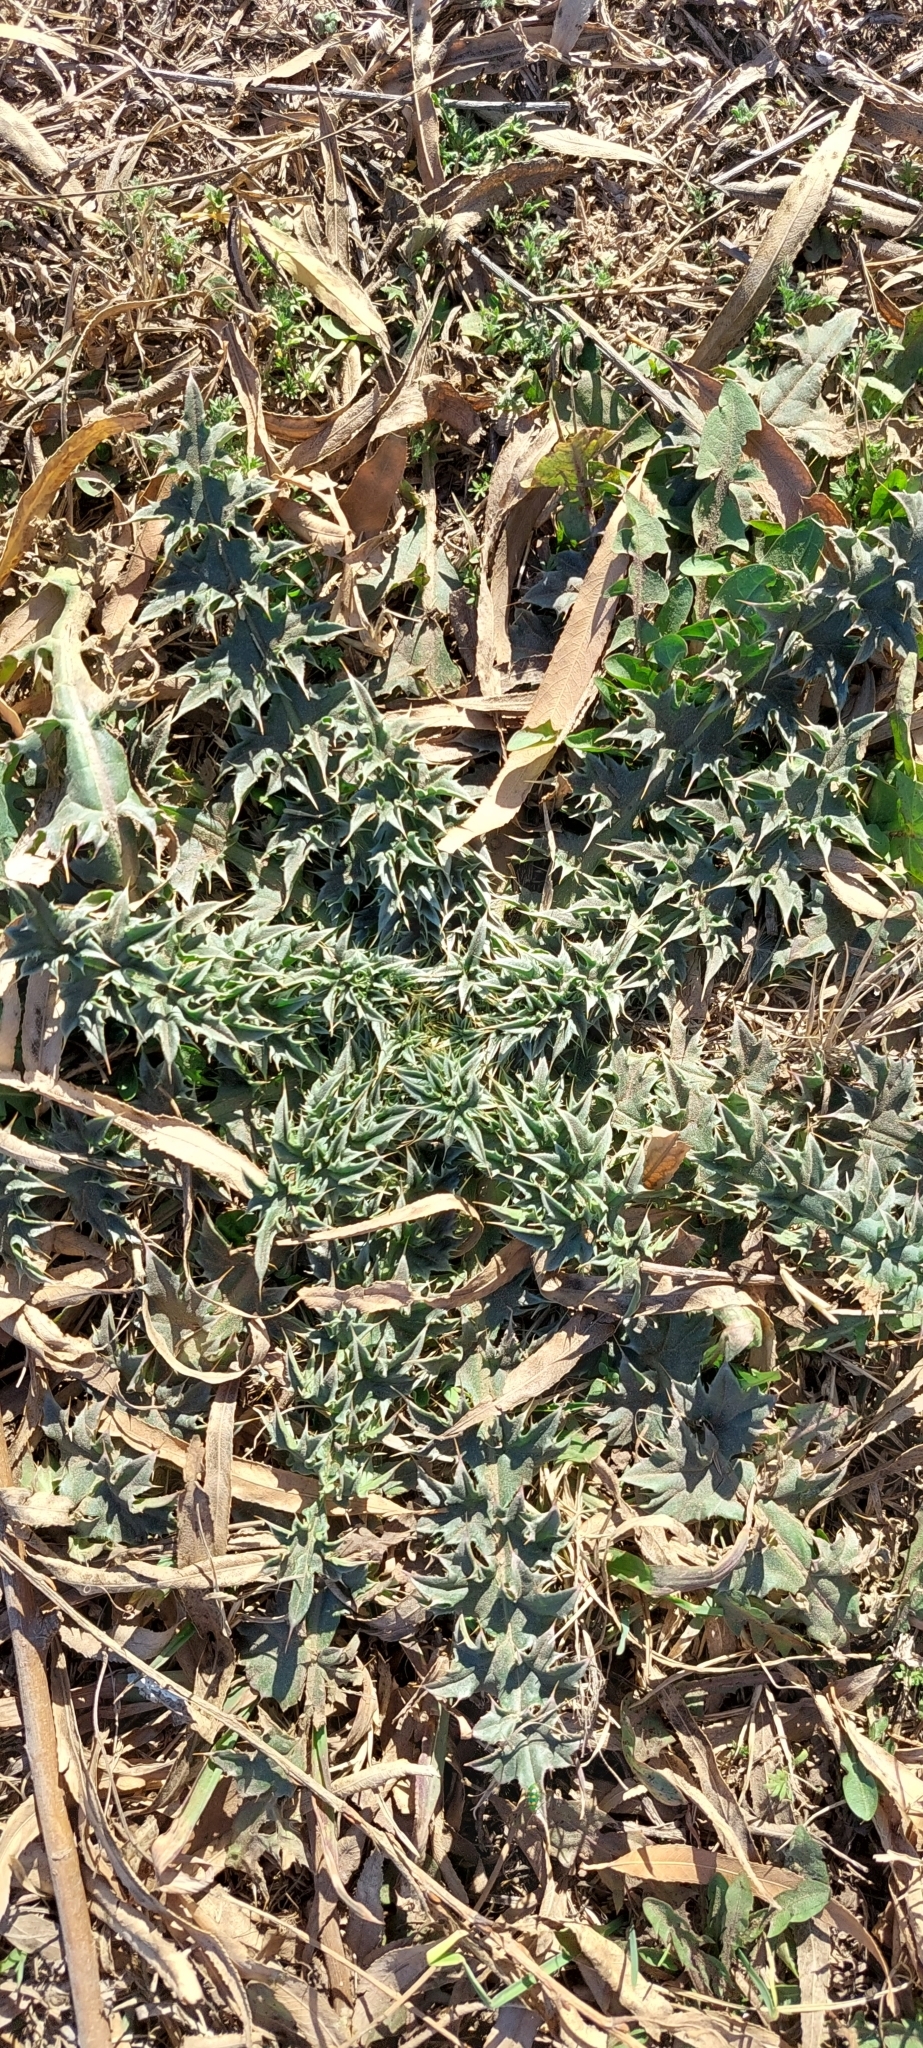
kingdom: Plantae
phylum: Tracheophyta
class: Magnoliopsida
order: Asterales
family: Asteraceae
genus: Carduus
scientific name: Carduus acanthoides
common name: Plumeless thistle
